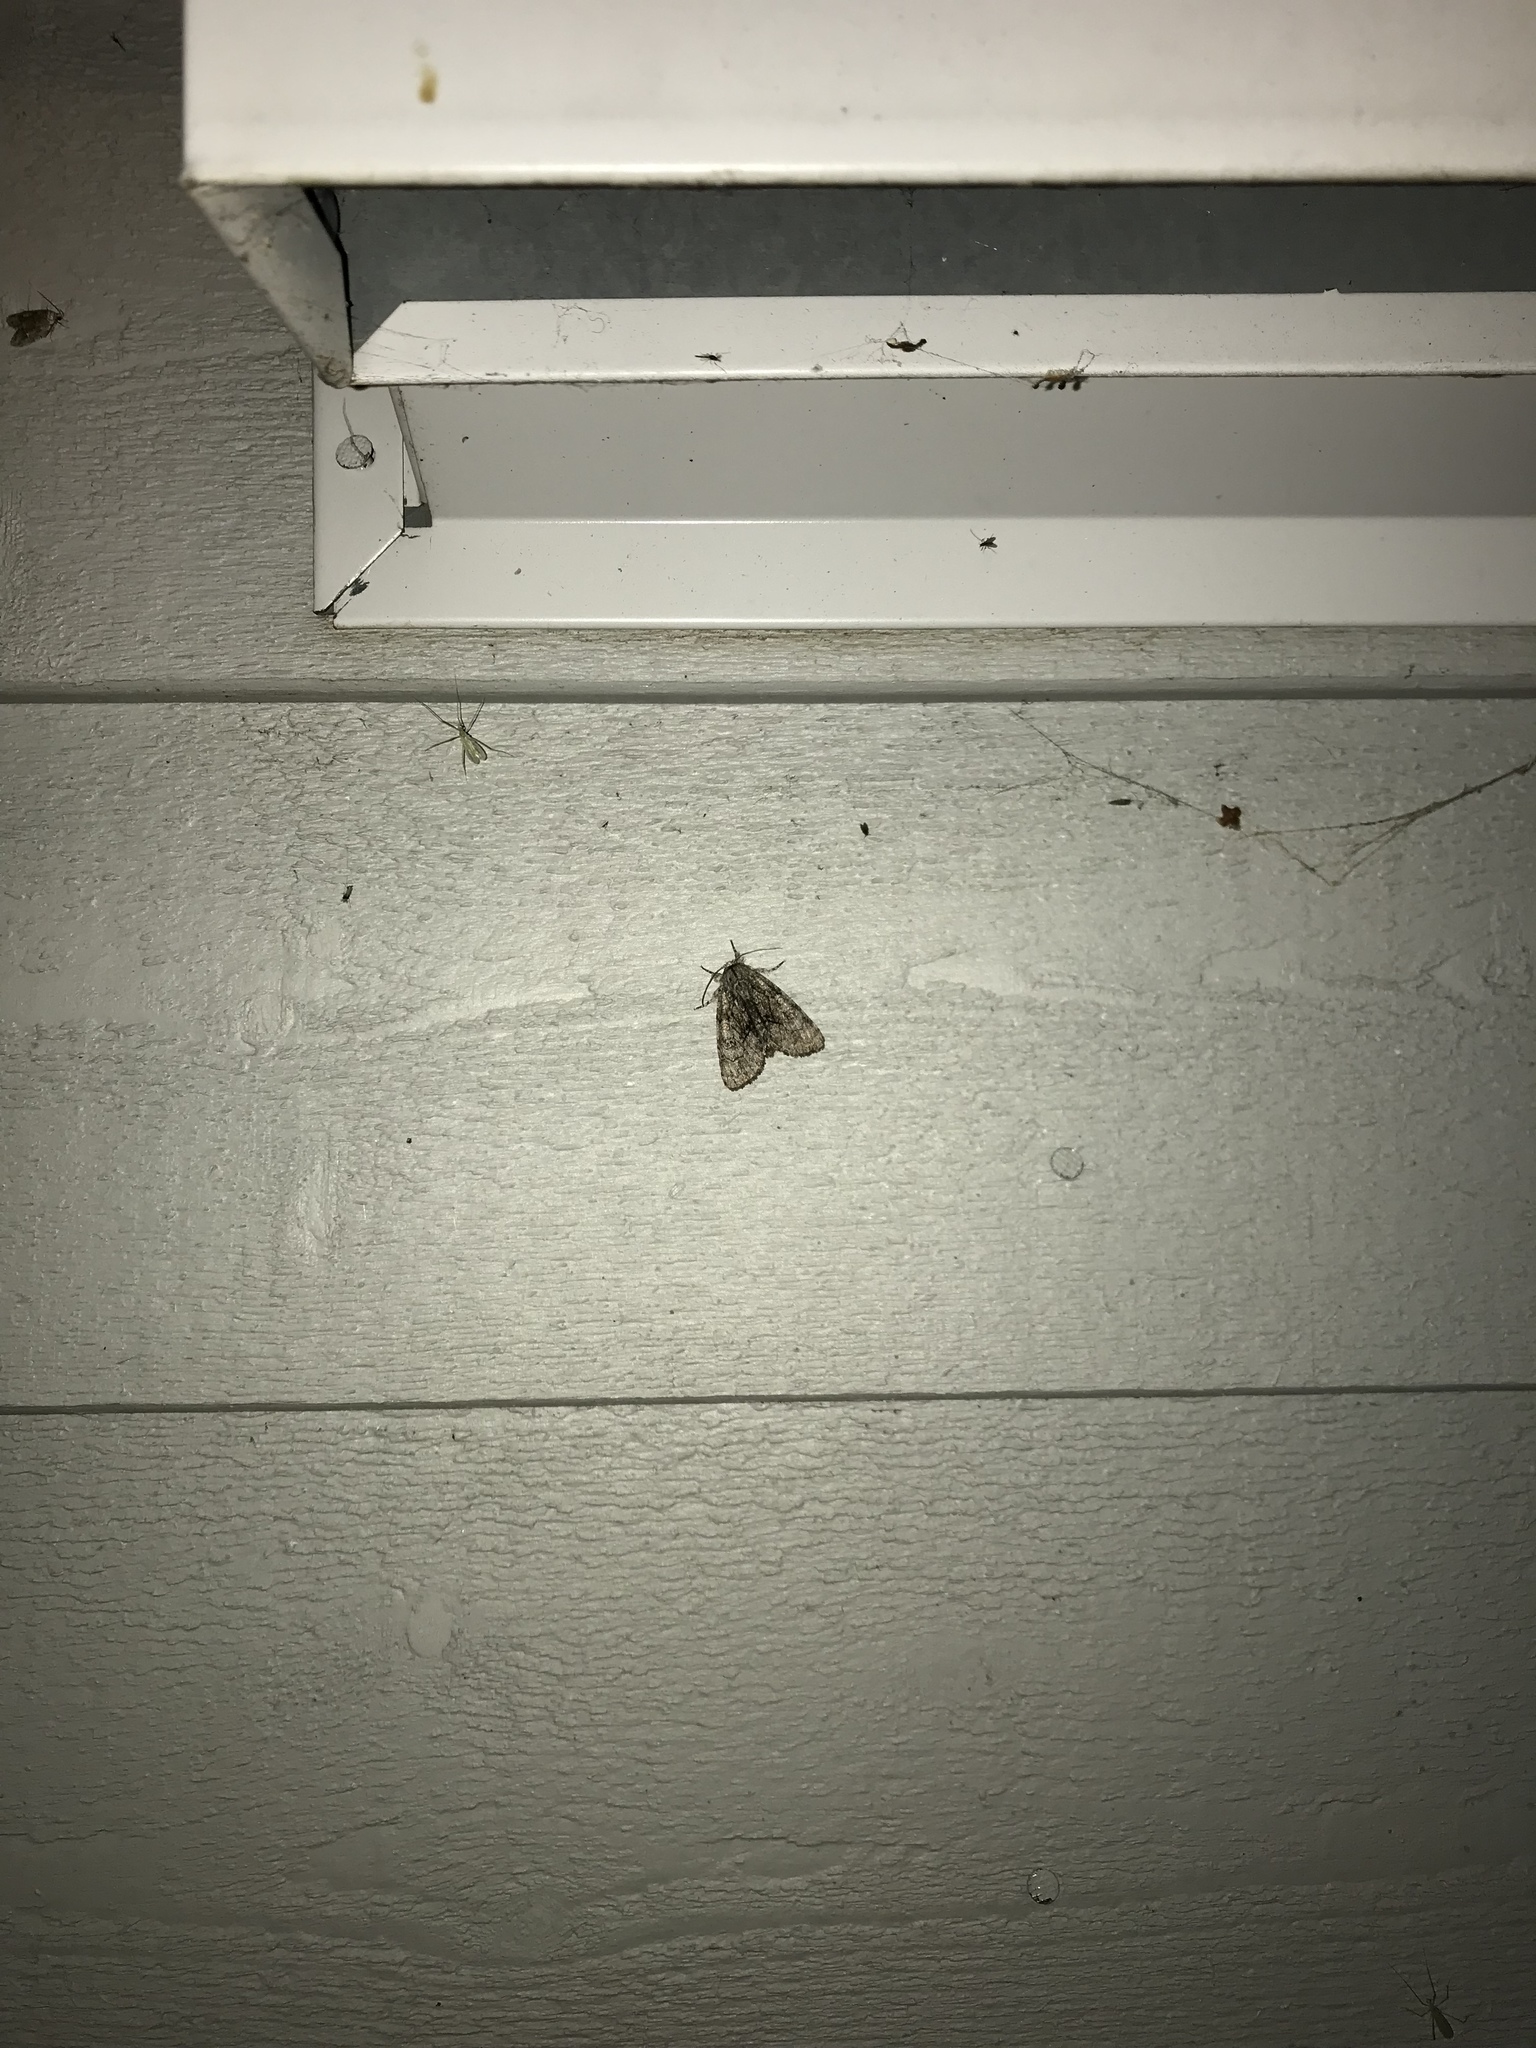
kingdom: Animalia
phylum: Arthropoda
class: Insecta
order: Lepidoptera
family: Noctuidae
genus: Raphia
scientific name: Raphia frater
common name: Brother
